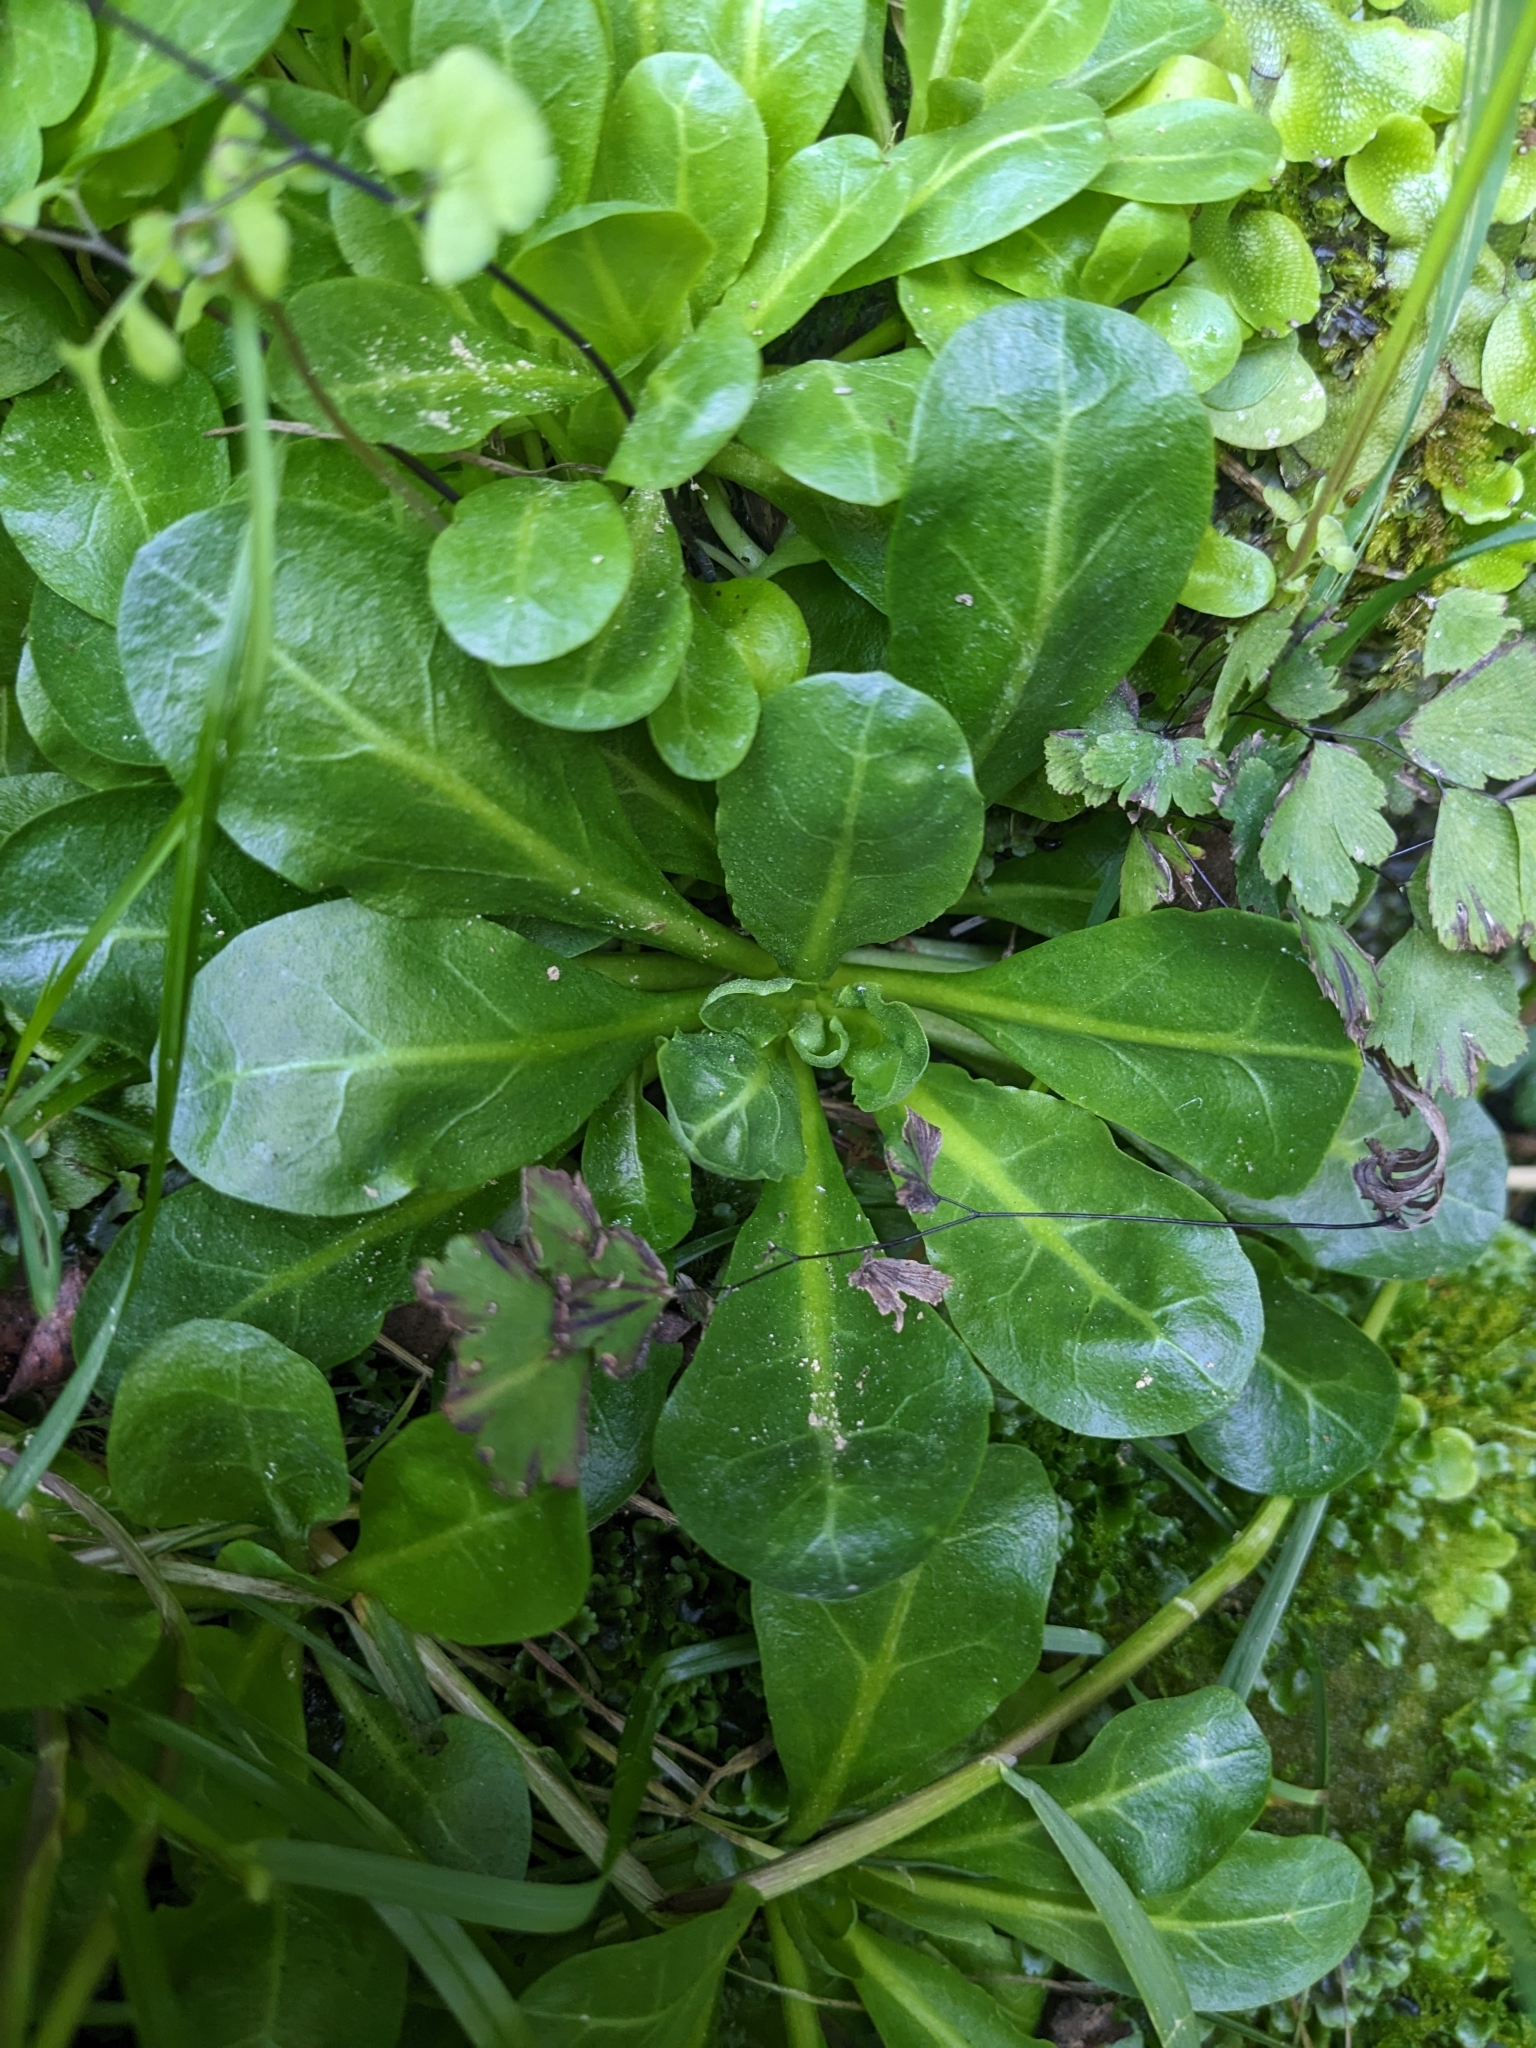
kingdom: Plantae
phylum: Tracheophyta
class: Magnoliopsida
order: Ericales
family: Primulaceae
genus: Samolus
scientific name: Samolus valerandi
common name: Brookweed
